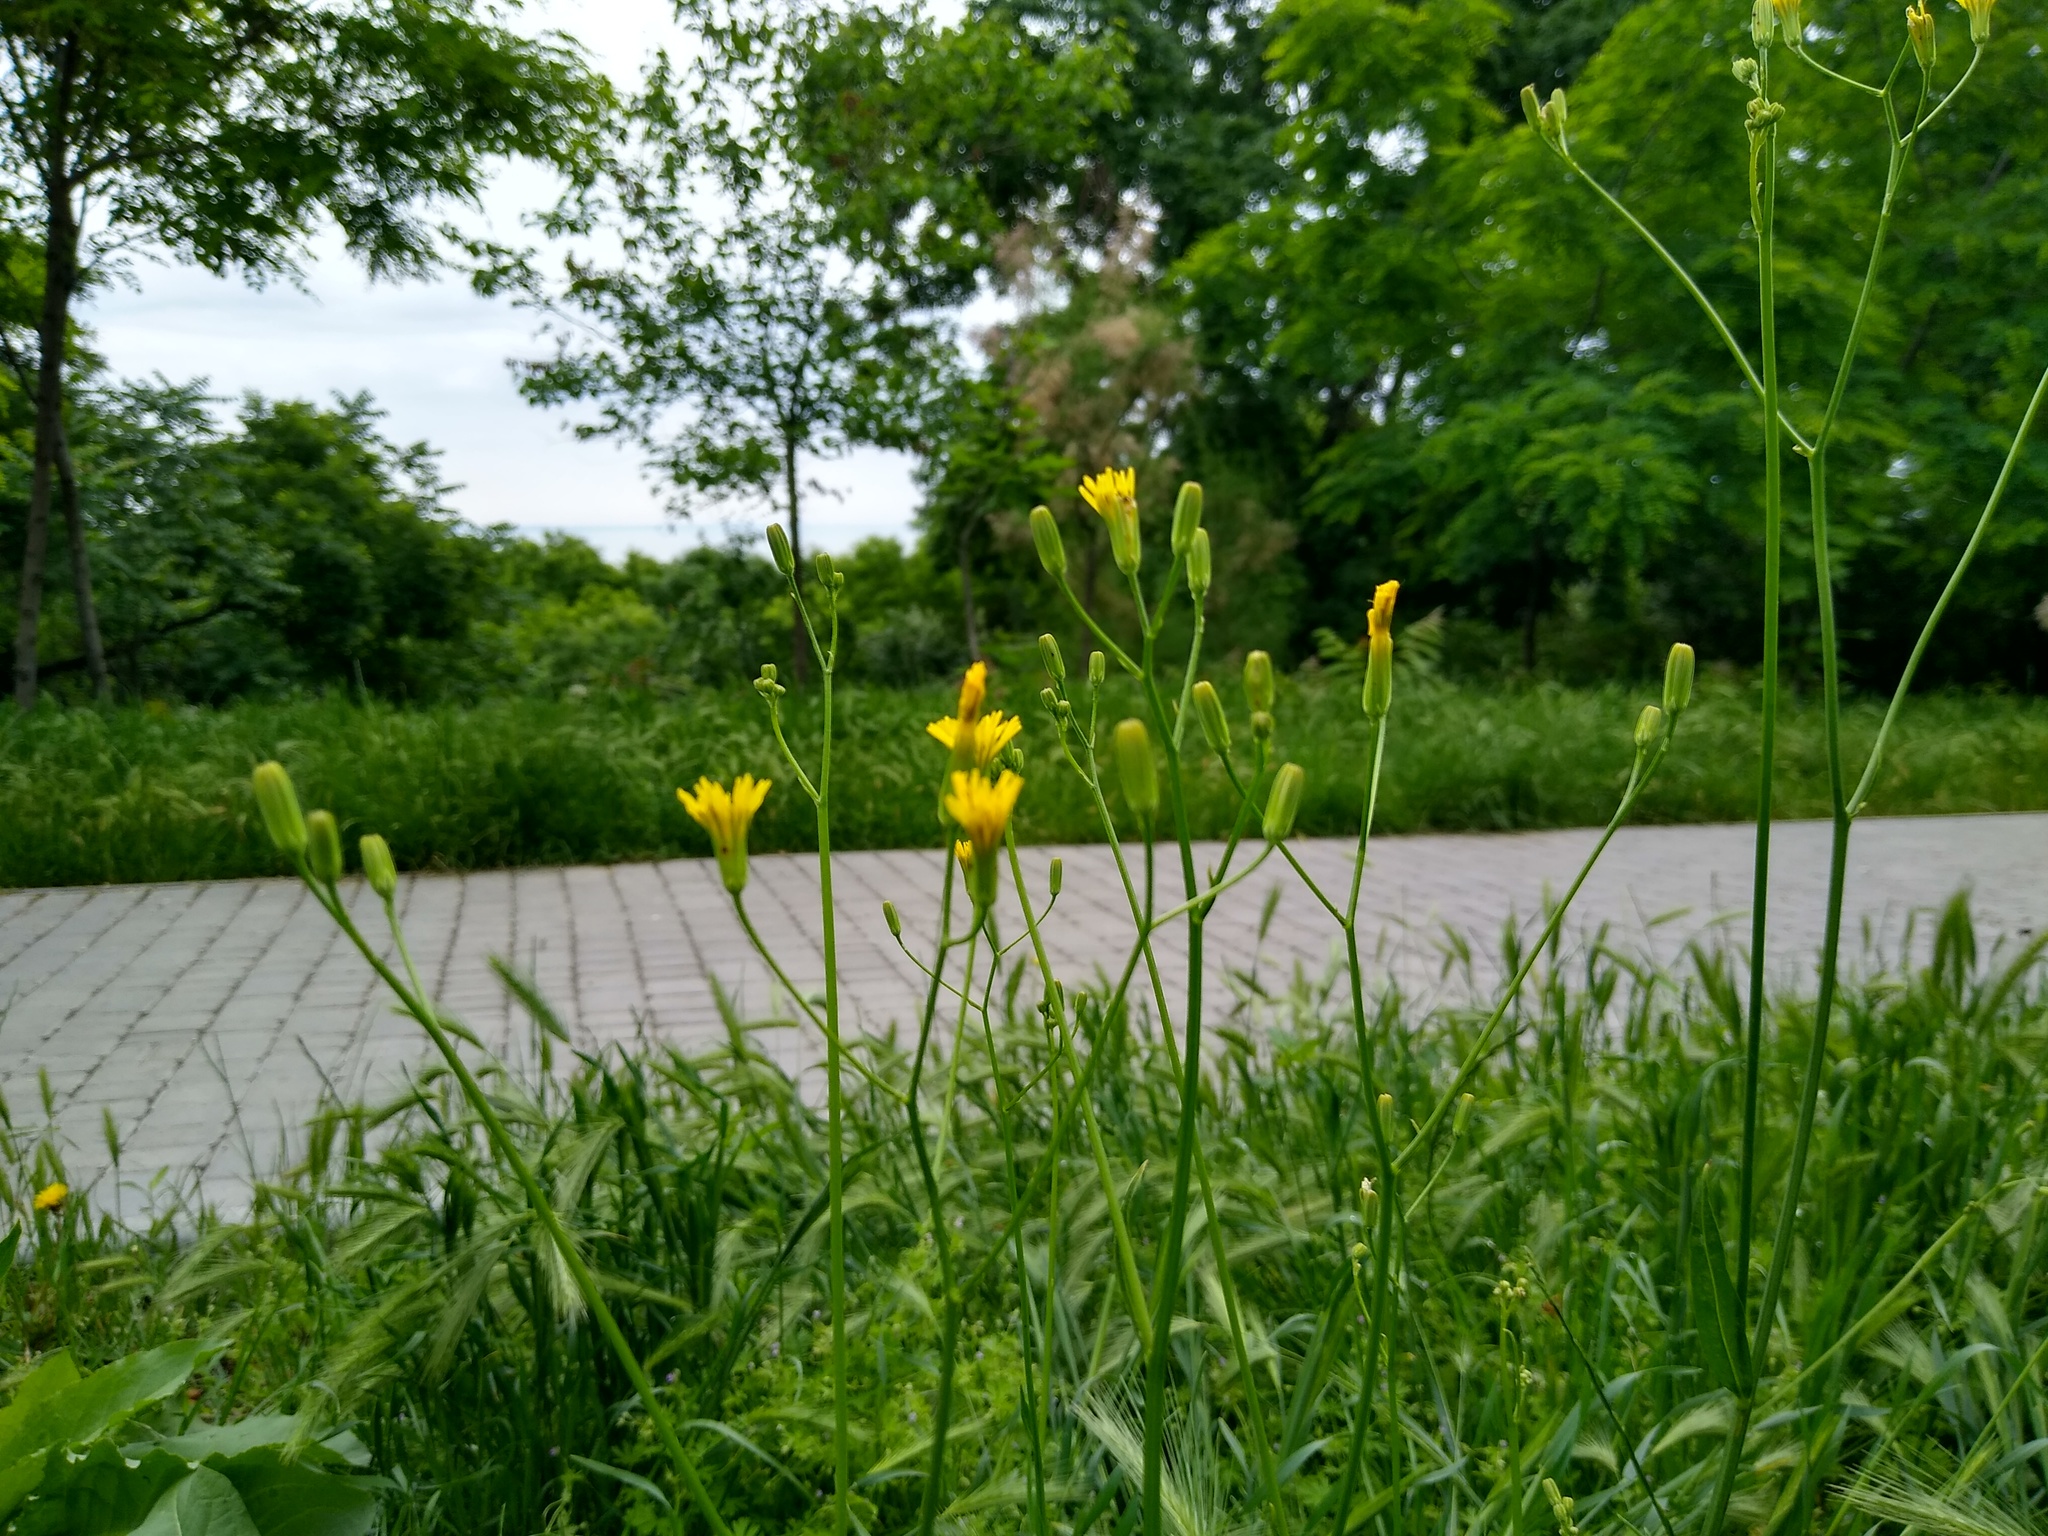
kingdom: Plantae
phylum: Tracheophyta
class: Magnoliopsida
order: Asterales
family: Asteraceae
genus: Crepis
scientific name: Crepis pulchra
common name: Hawk's-beard
